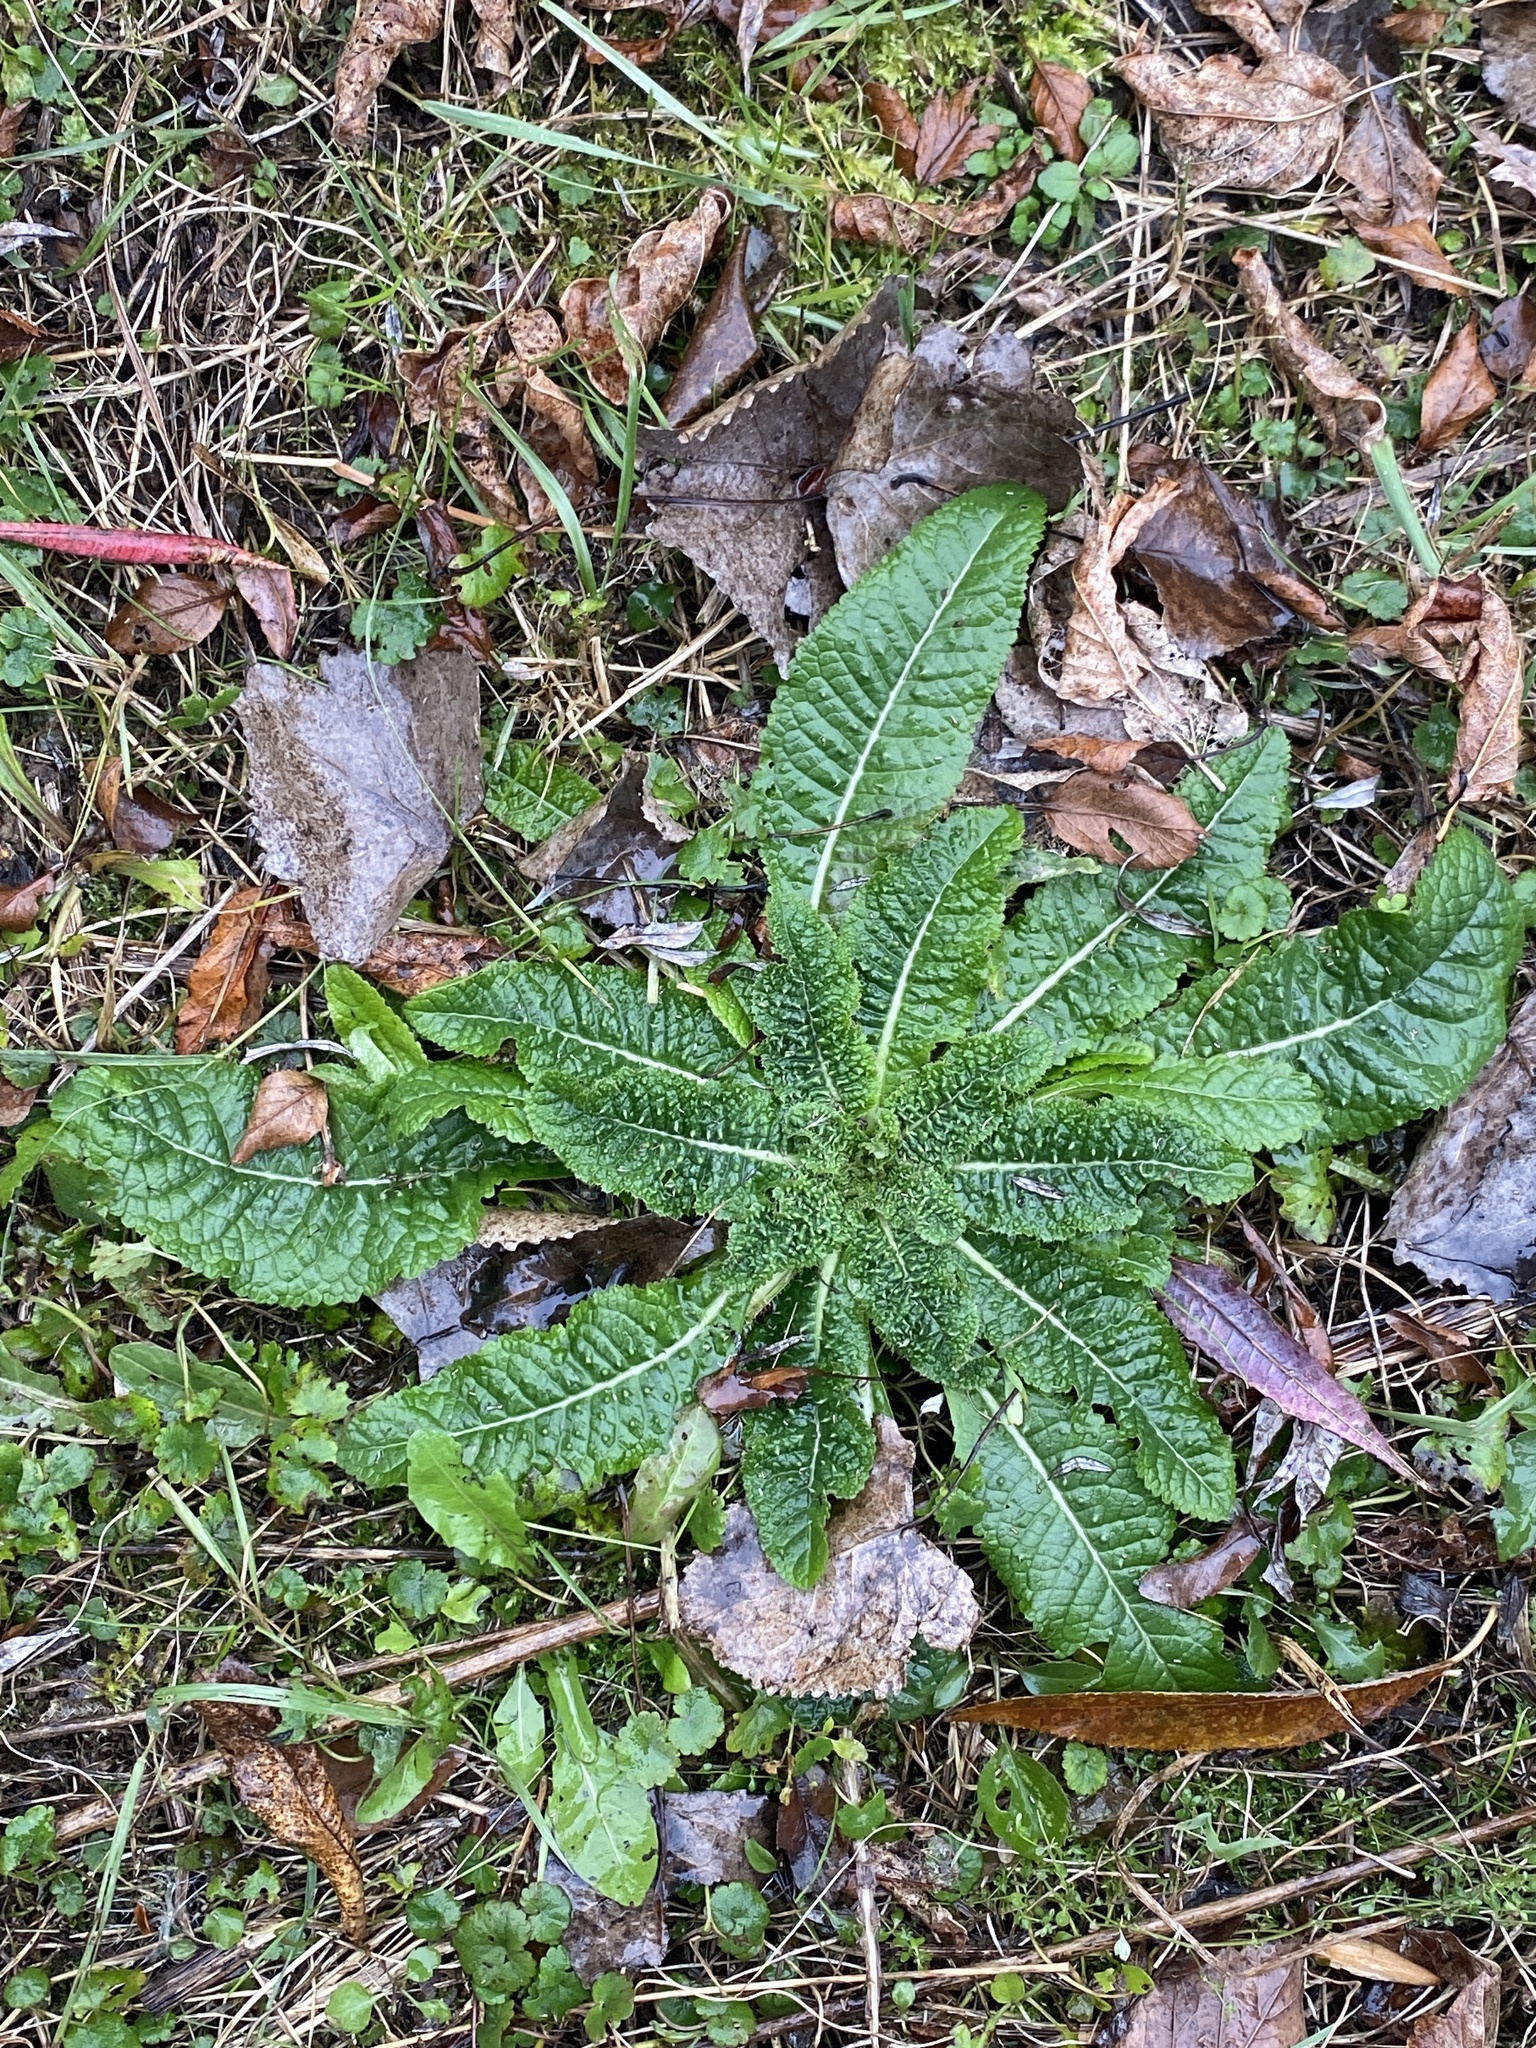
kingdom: Plantae
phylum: Tracheophyta
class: Magnoliopsida
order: Dipsacales
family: Caprifoliaceae
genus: Dipsacus
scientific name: Dipsacus fullonum
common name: Teasel
